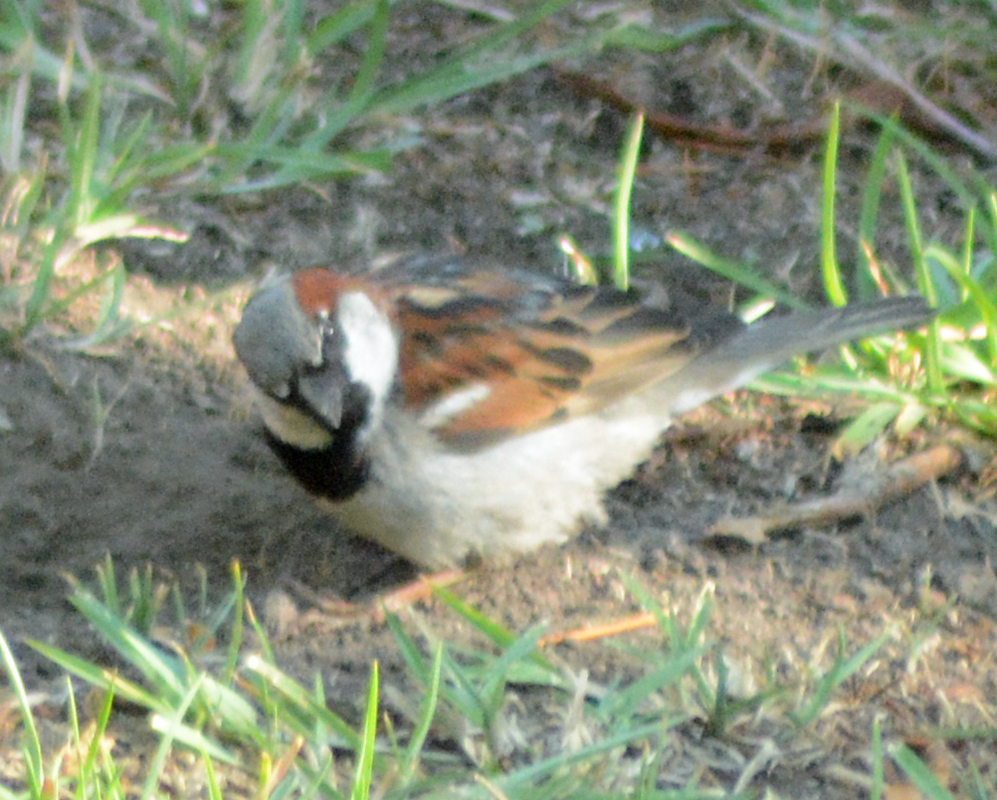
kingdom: Animalia
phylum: Chordata
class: Aves
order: Passeriformes
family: Passeridae
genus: Passer
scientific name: Passer domesticus
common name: House sparrow
